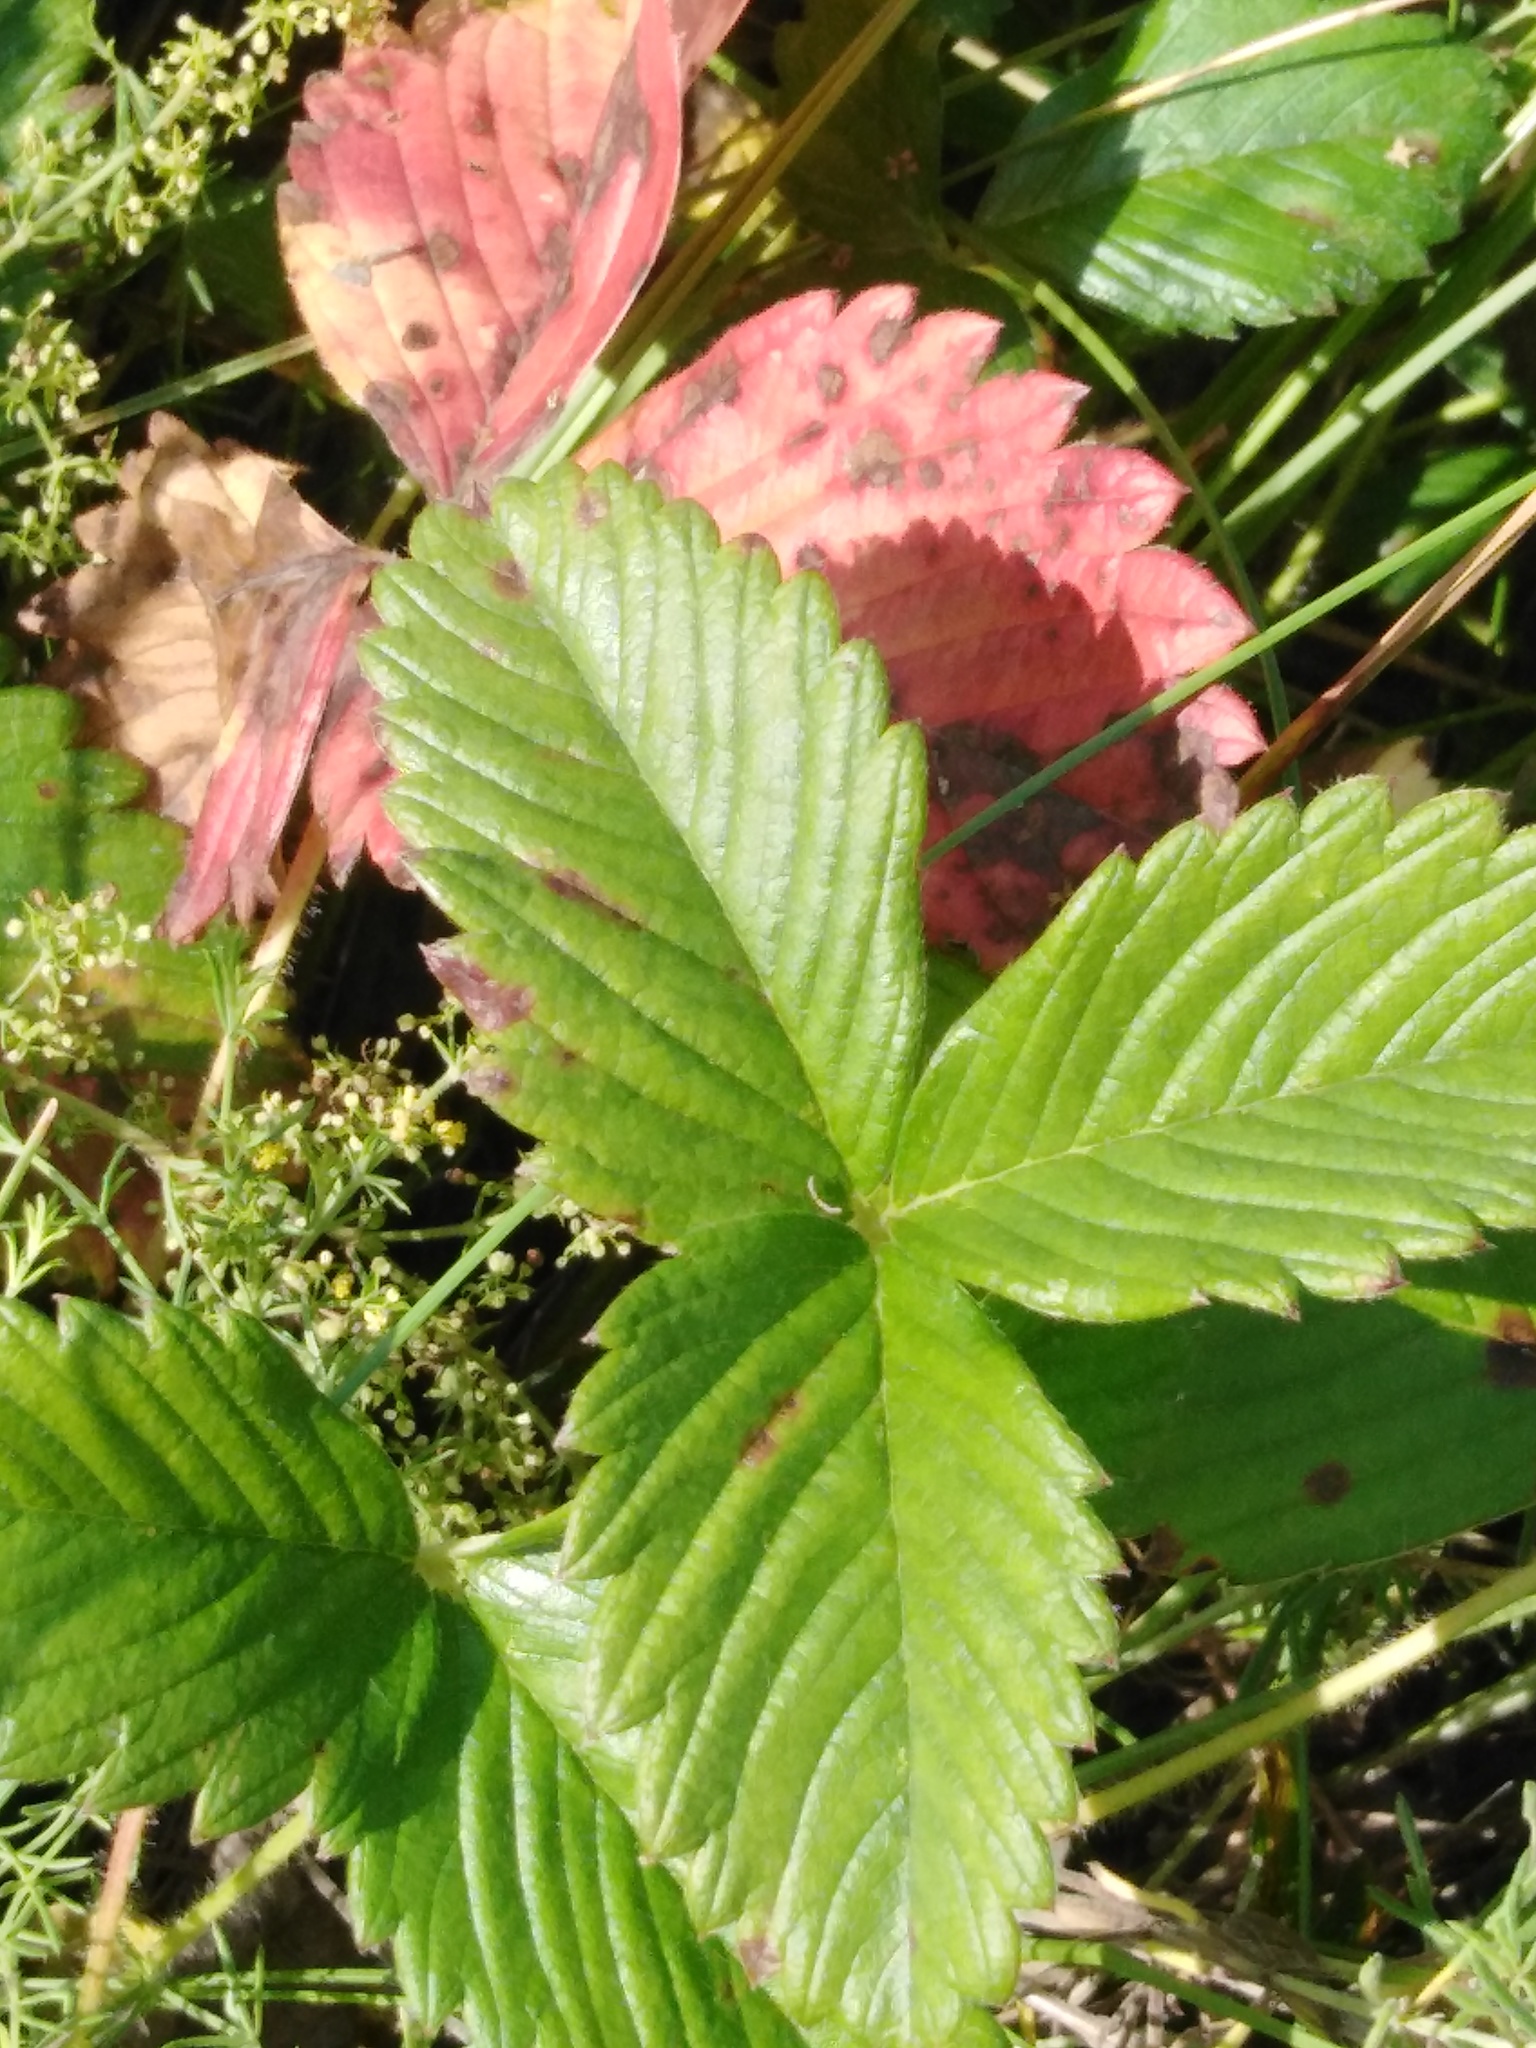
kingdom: Plantae
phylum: Tracheophyta
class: Magnoliopsida
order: Rosales
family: Rosaceae
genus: Fragaria
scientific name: Fragaria viridis
